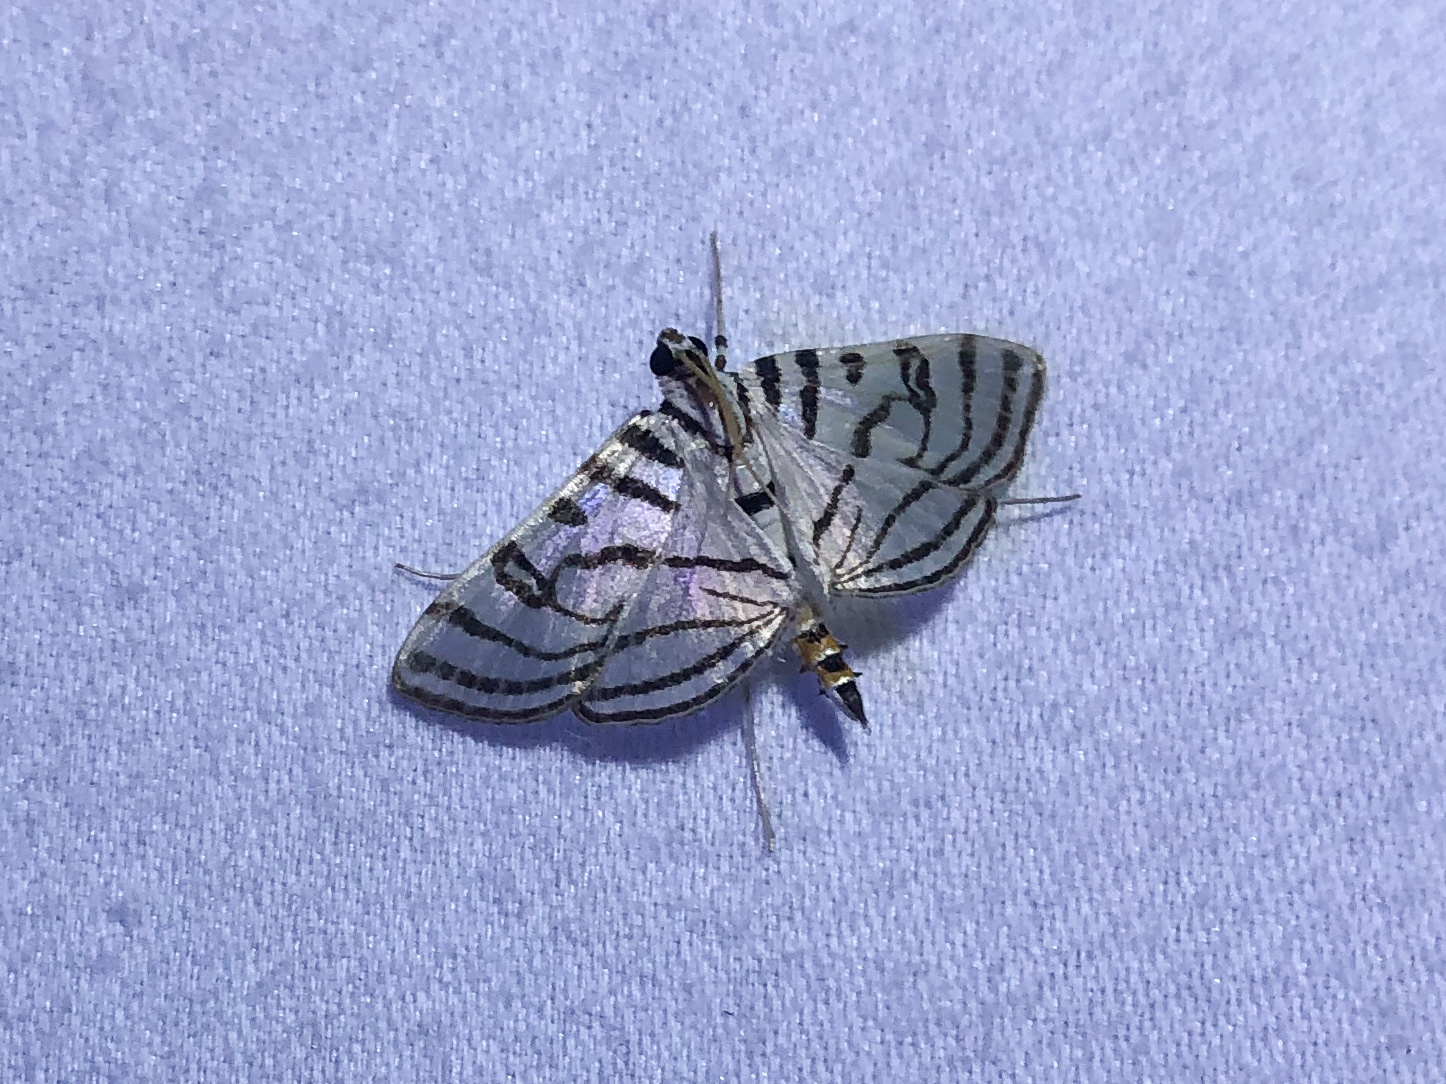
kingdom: Animalia
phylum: Arthropoda
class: Insecta
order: Lepidoptera
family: Crambidae
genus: Conchylodes
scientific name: Conchylodes ovulalis
